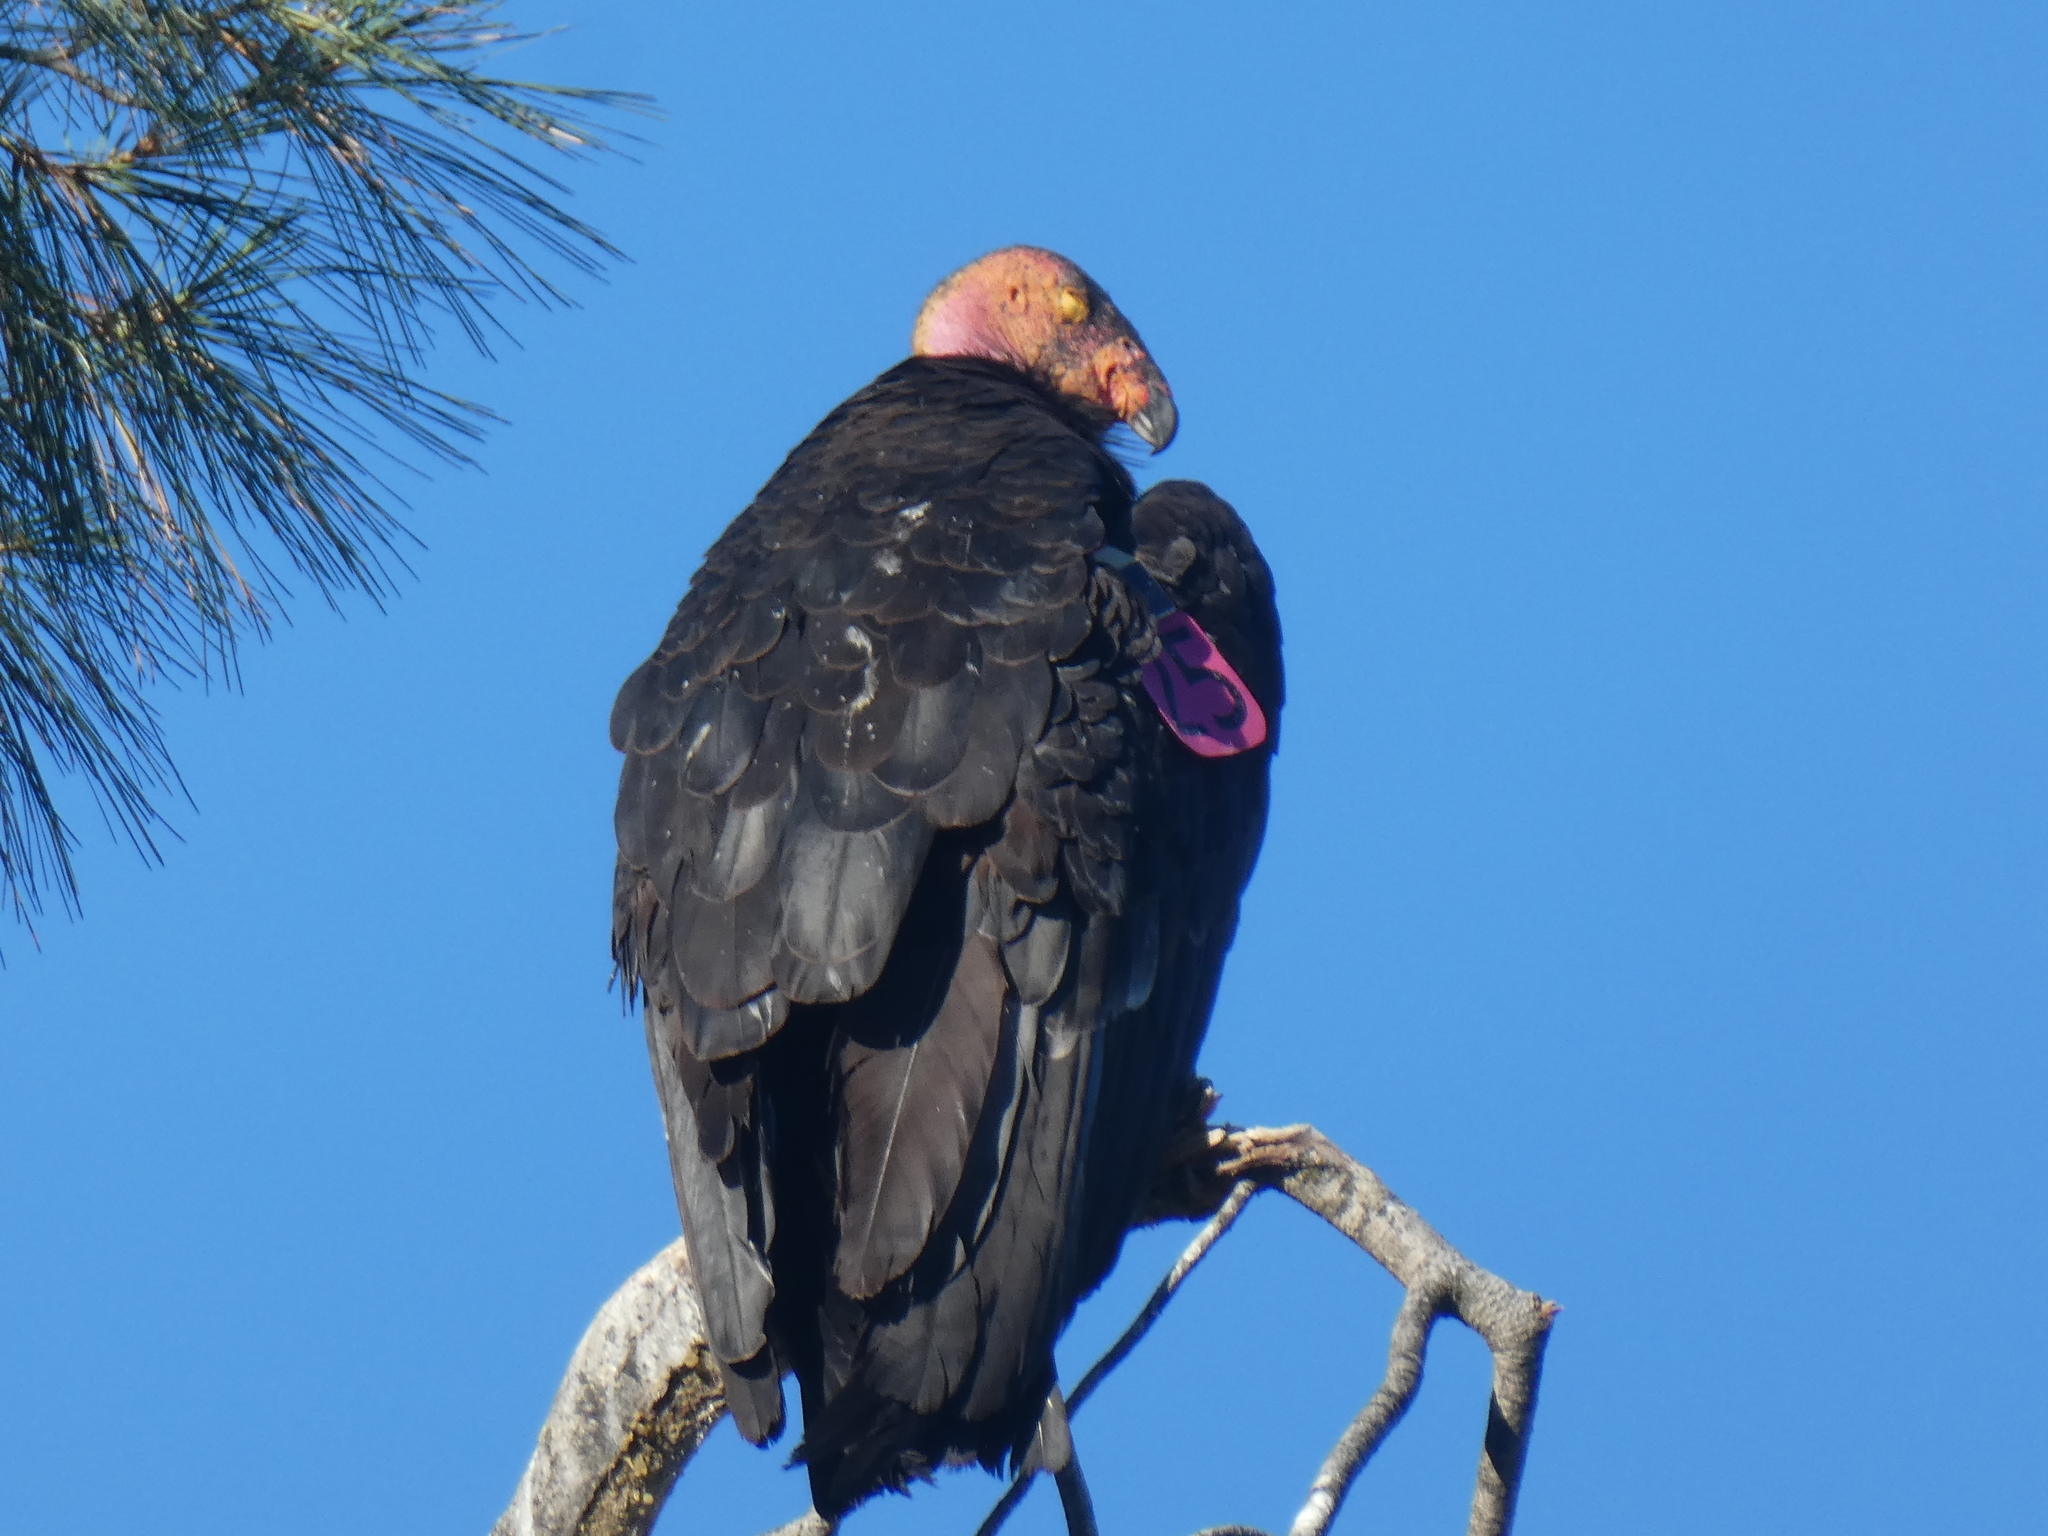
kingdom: Animalia
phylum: Chordata
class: Aves
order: Accipitriformes
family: Cathartidae
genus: Gymnogyps
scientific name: Gymnogyps californianus
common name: California condor
